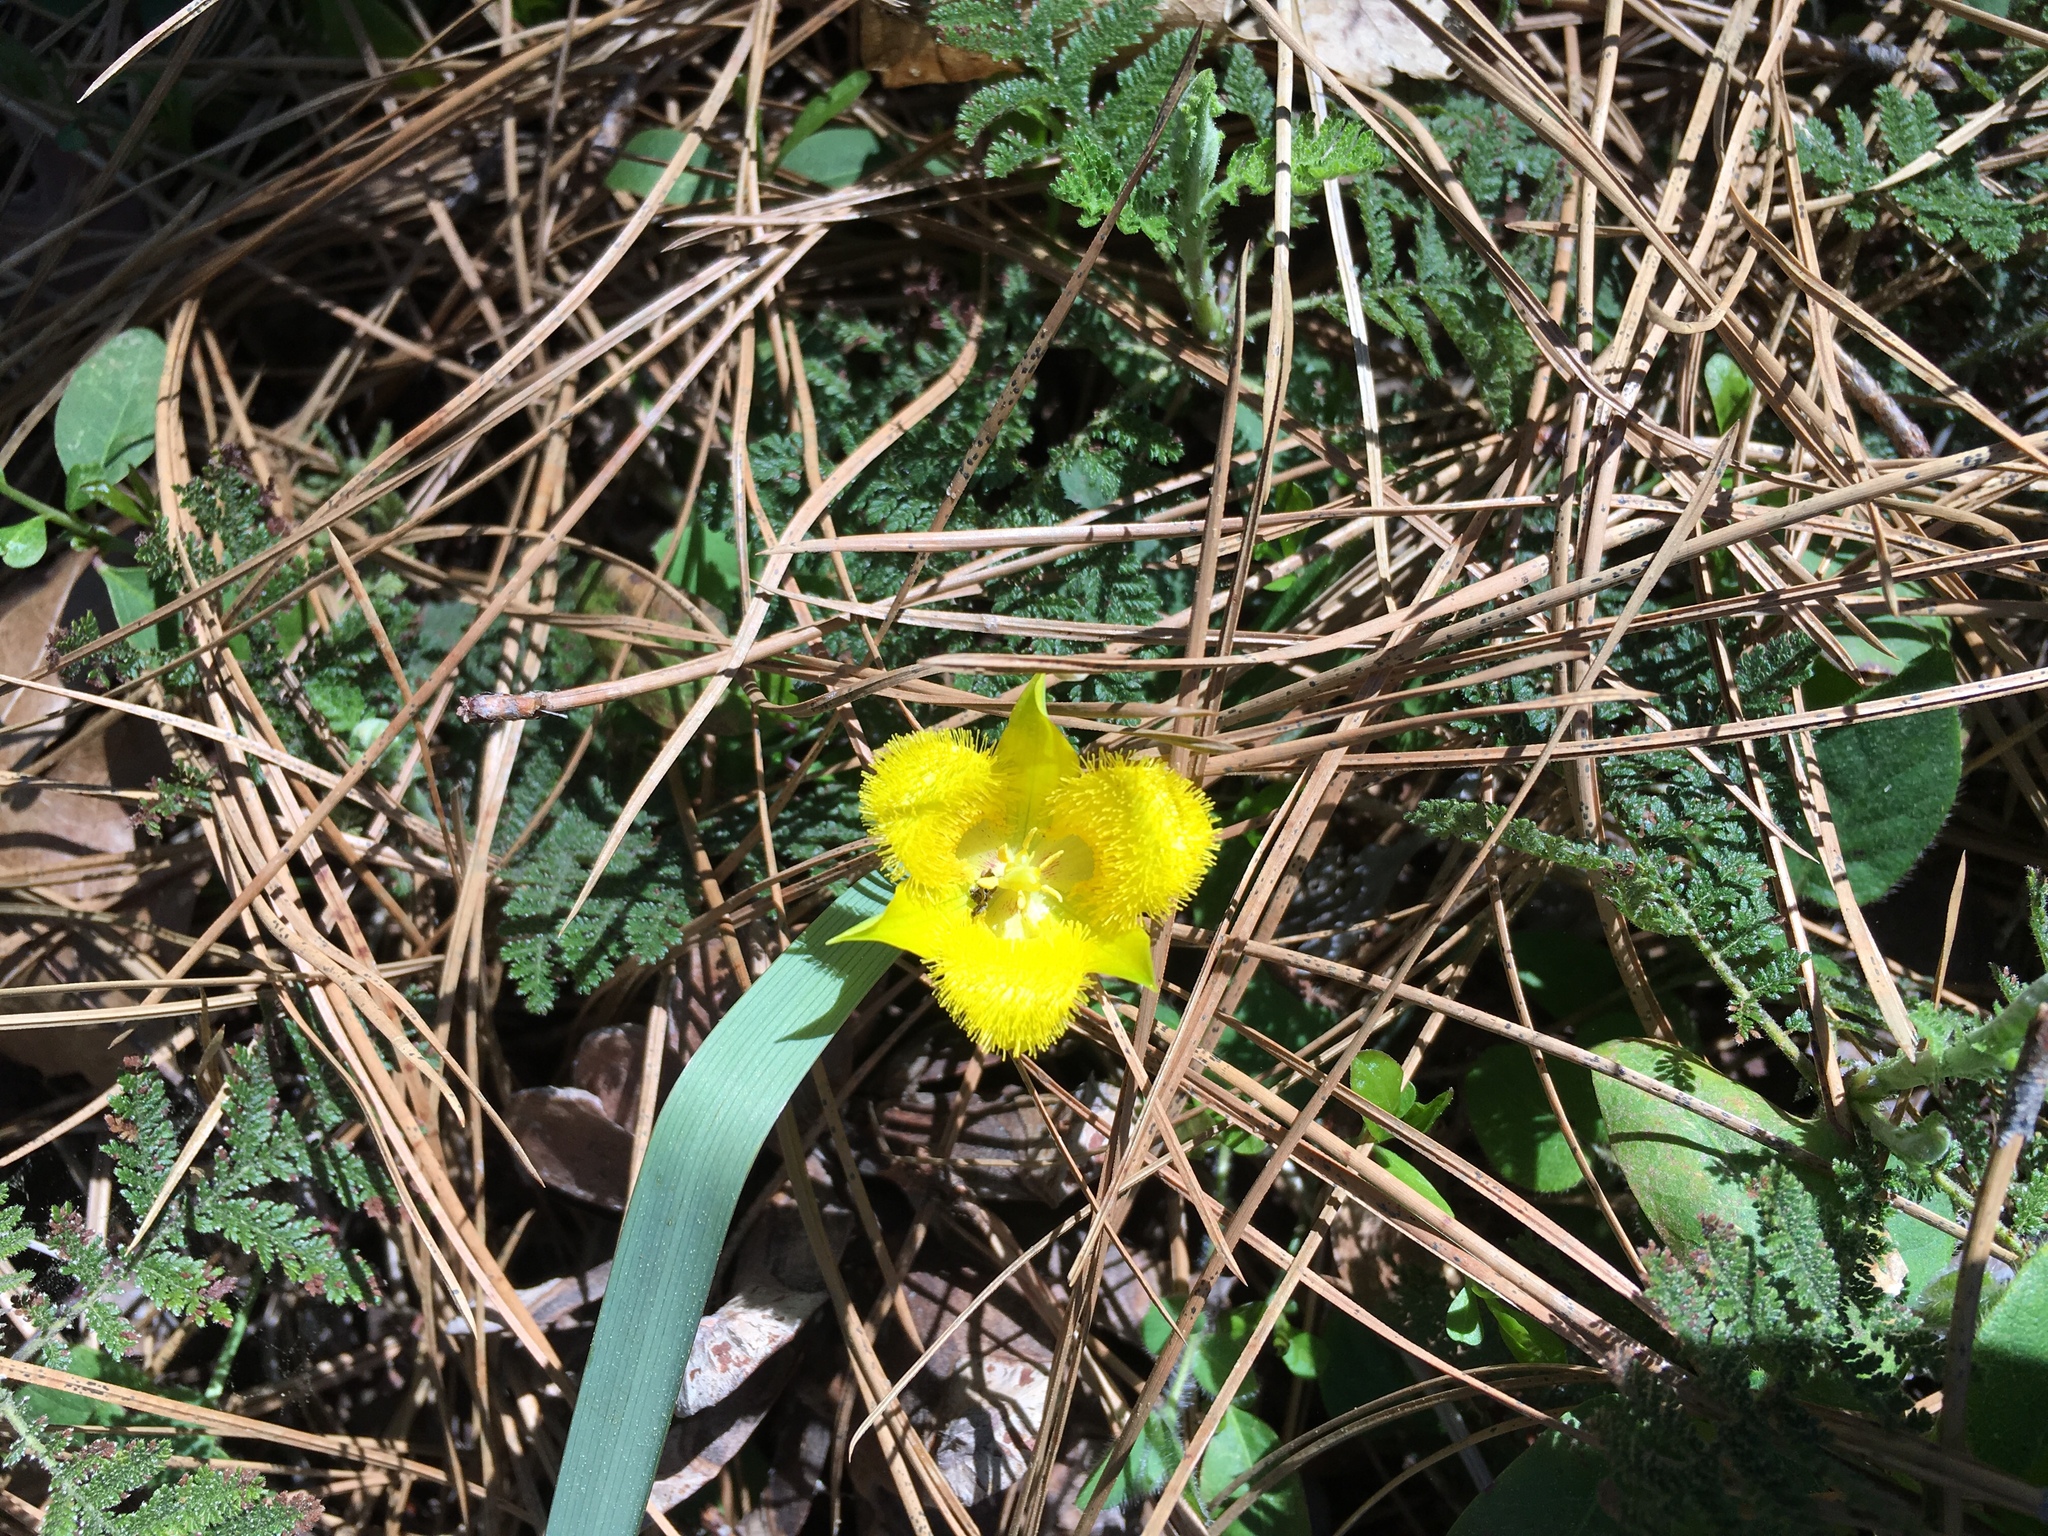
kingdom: Plantae
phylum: Tracheophyta
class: Liliopsida
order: Liliales
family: Liliaceae
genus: Calochortus
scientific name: Calochortus monophyllus
